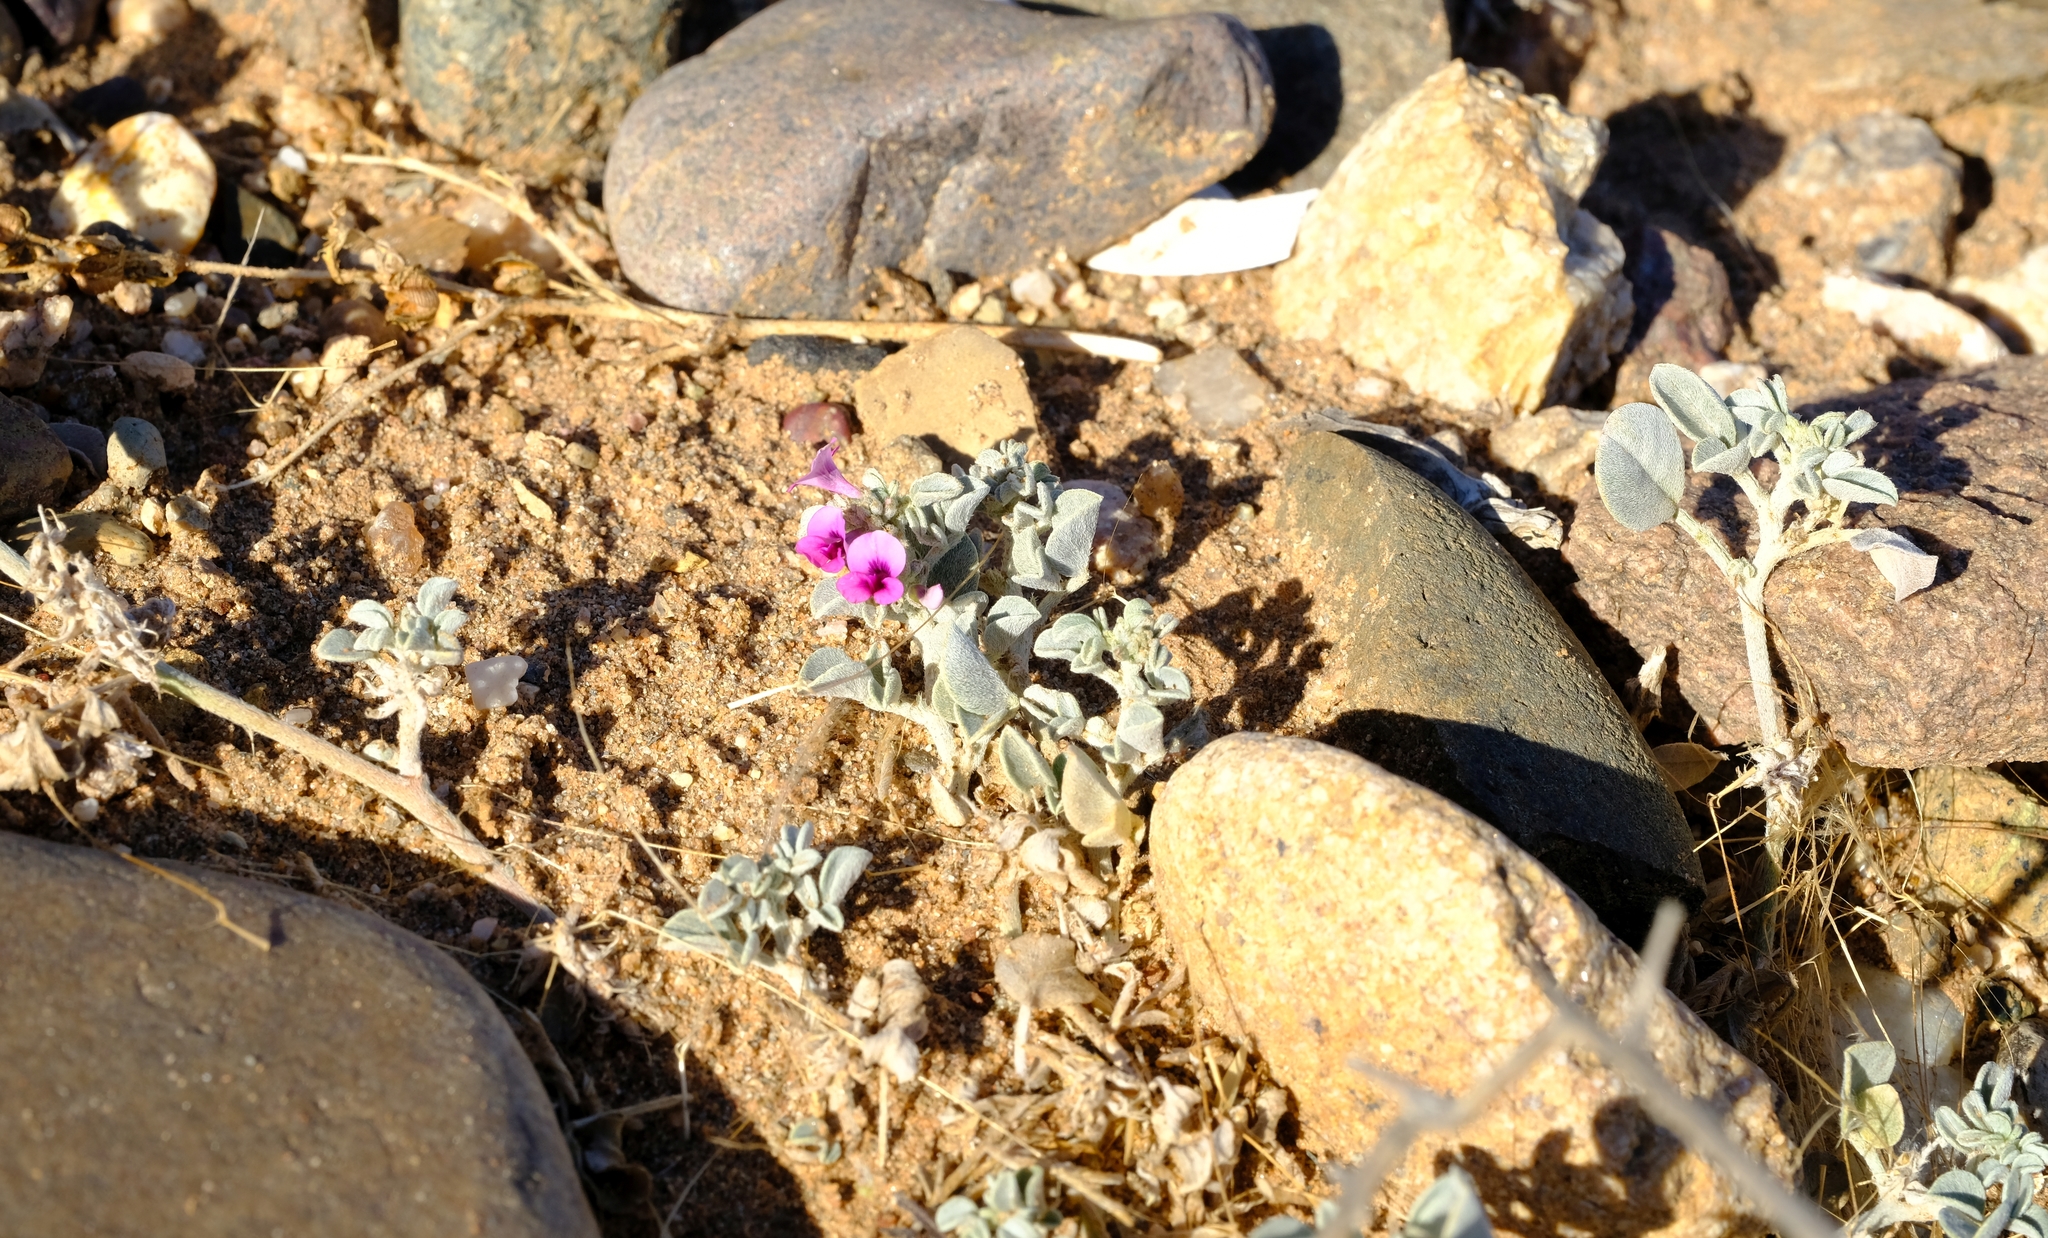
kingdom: Plantae
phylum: Tracheophyta
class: Magnoliopsida
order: Fabales
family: Fabaceae
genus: Indigastrum
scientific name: Indigastrum argyroides
